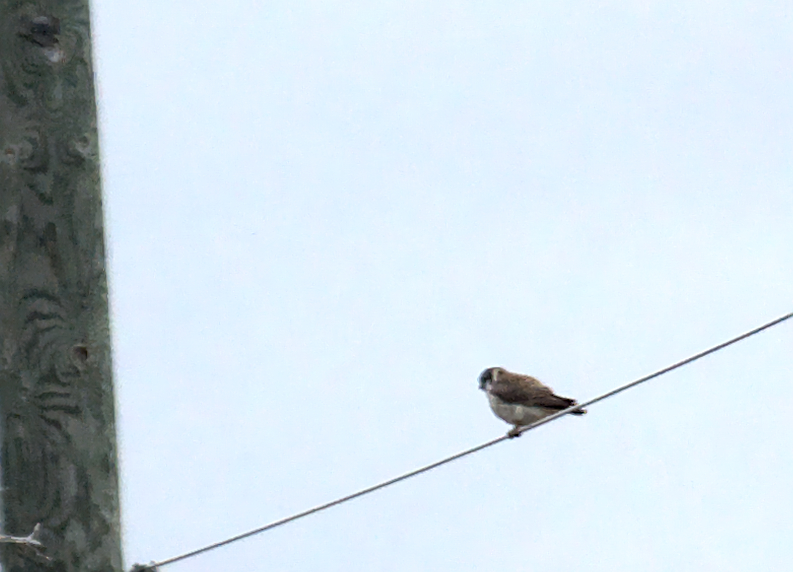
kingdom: Animalia
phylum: Chordata
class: Aves
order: Falconiformes
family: Falconidae
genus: Falco
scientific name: Falco sparverius
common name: American kestrel
